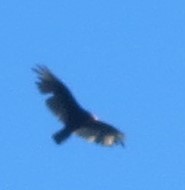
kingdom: Animalia
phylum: Chordata
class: Aves
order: Accipitriformes
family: Cathartidae
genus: Cathartes
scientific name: Cathartes aura
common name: Turkey vulture
